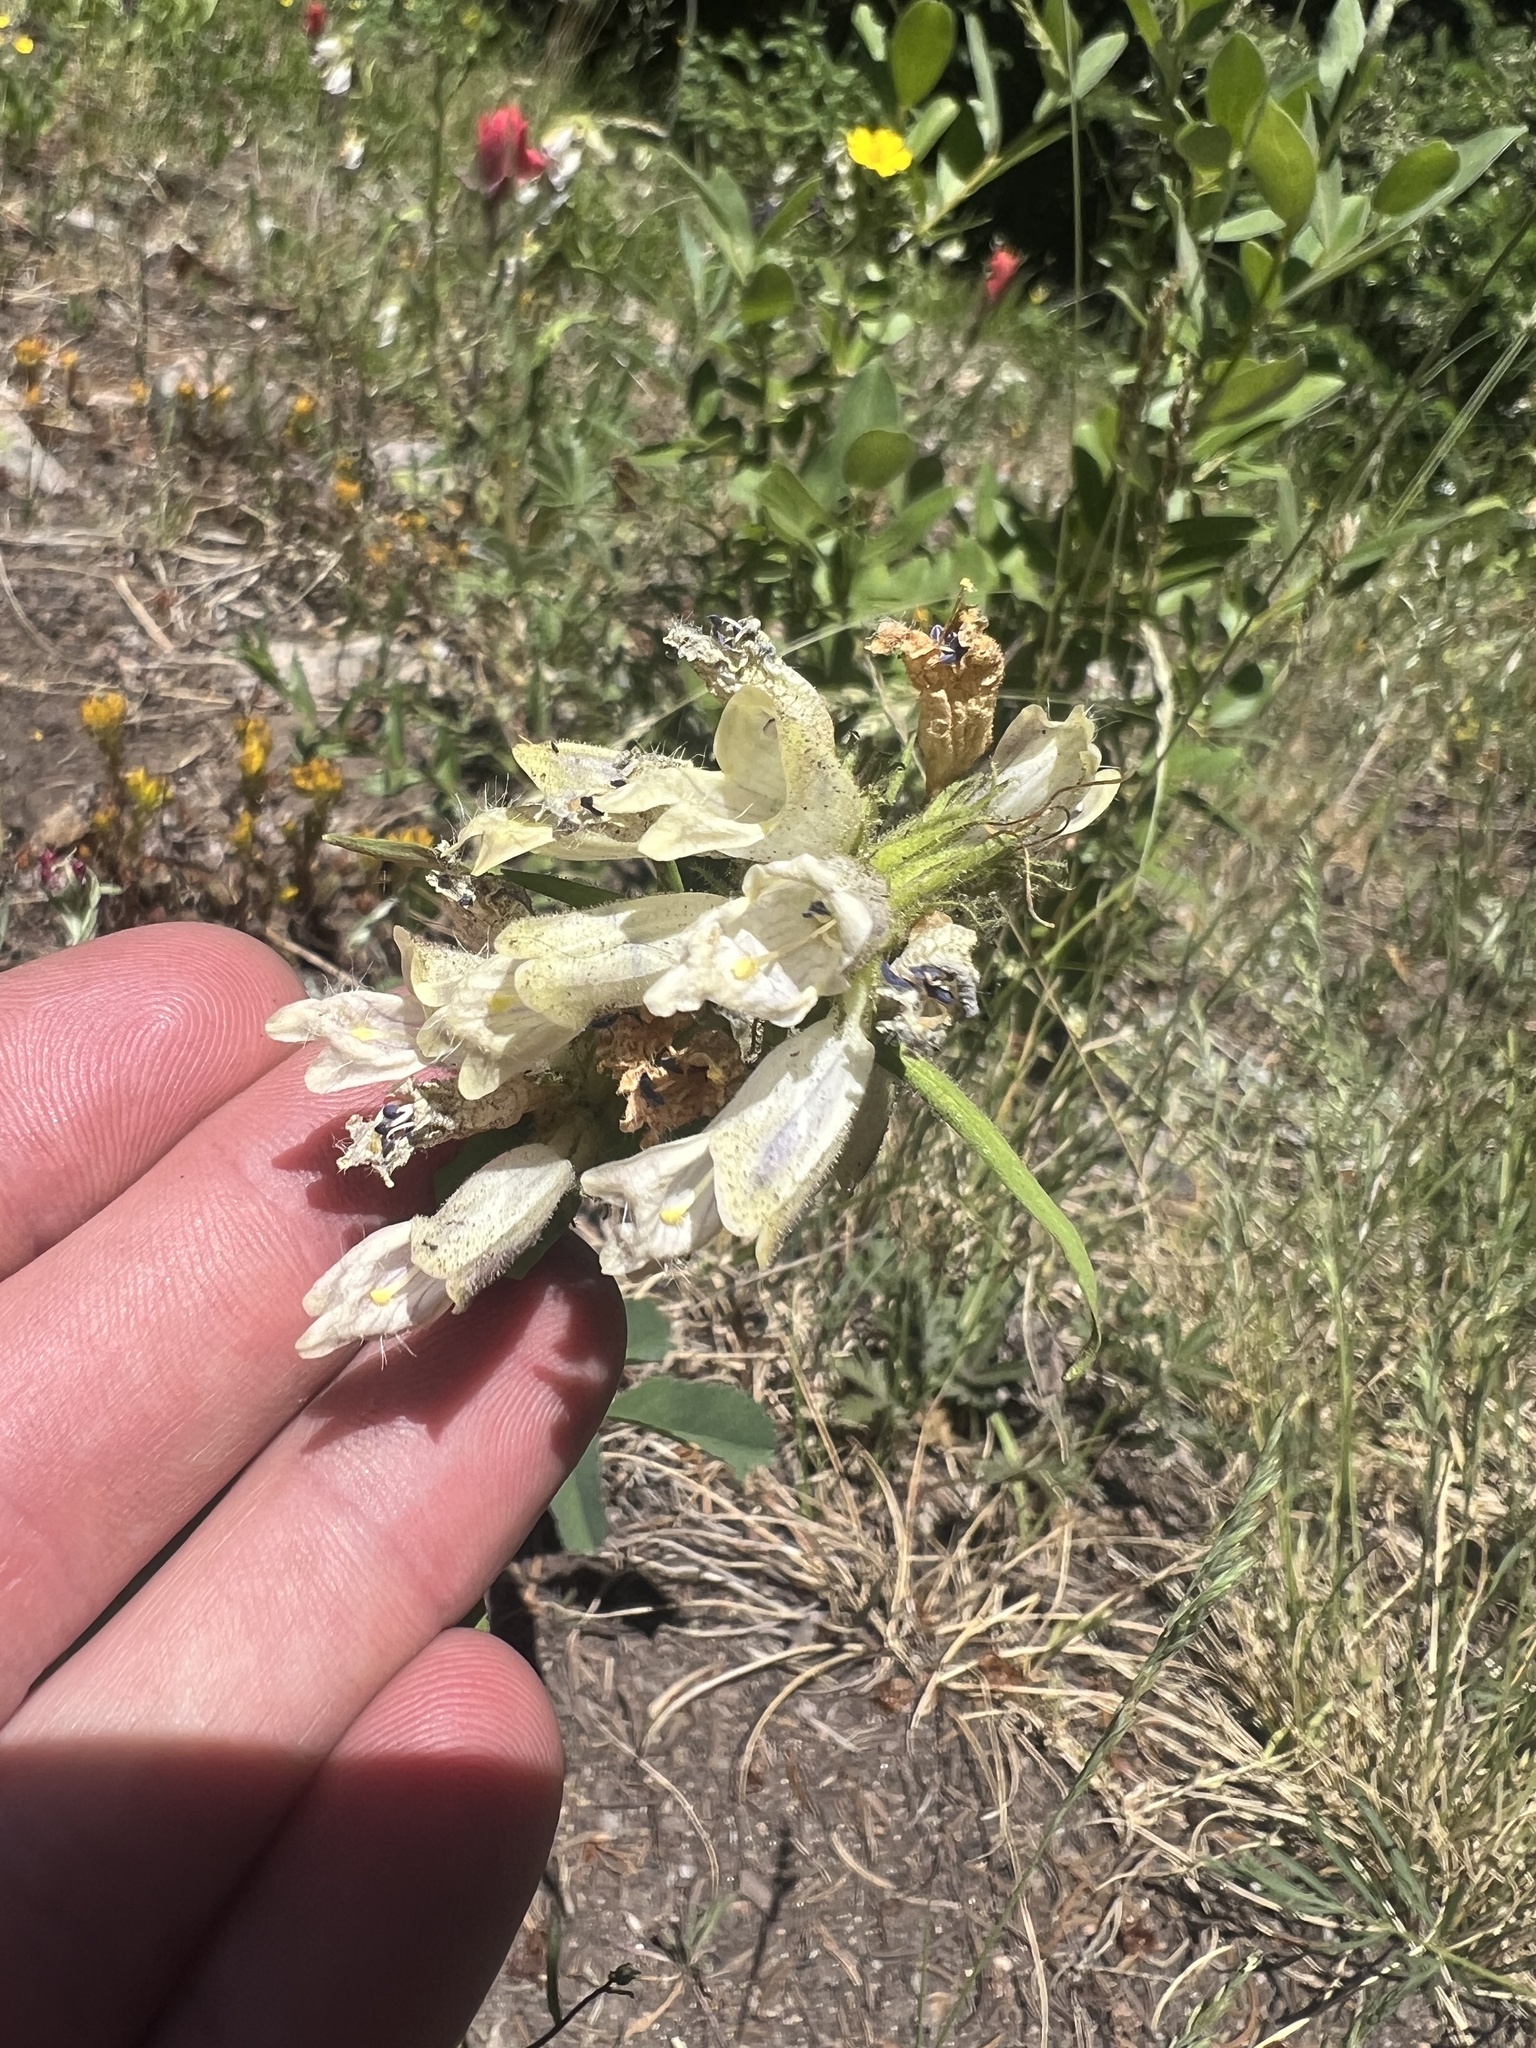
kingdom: Plantae
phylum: Tracheophyta
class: Magnoliopsida
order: Lamiales
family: Plantaginaceae
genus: Penstemon
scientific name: Penstemon whippleanus
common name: Whipple's penstemon
